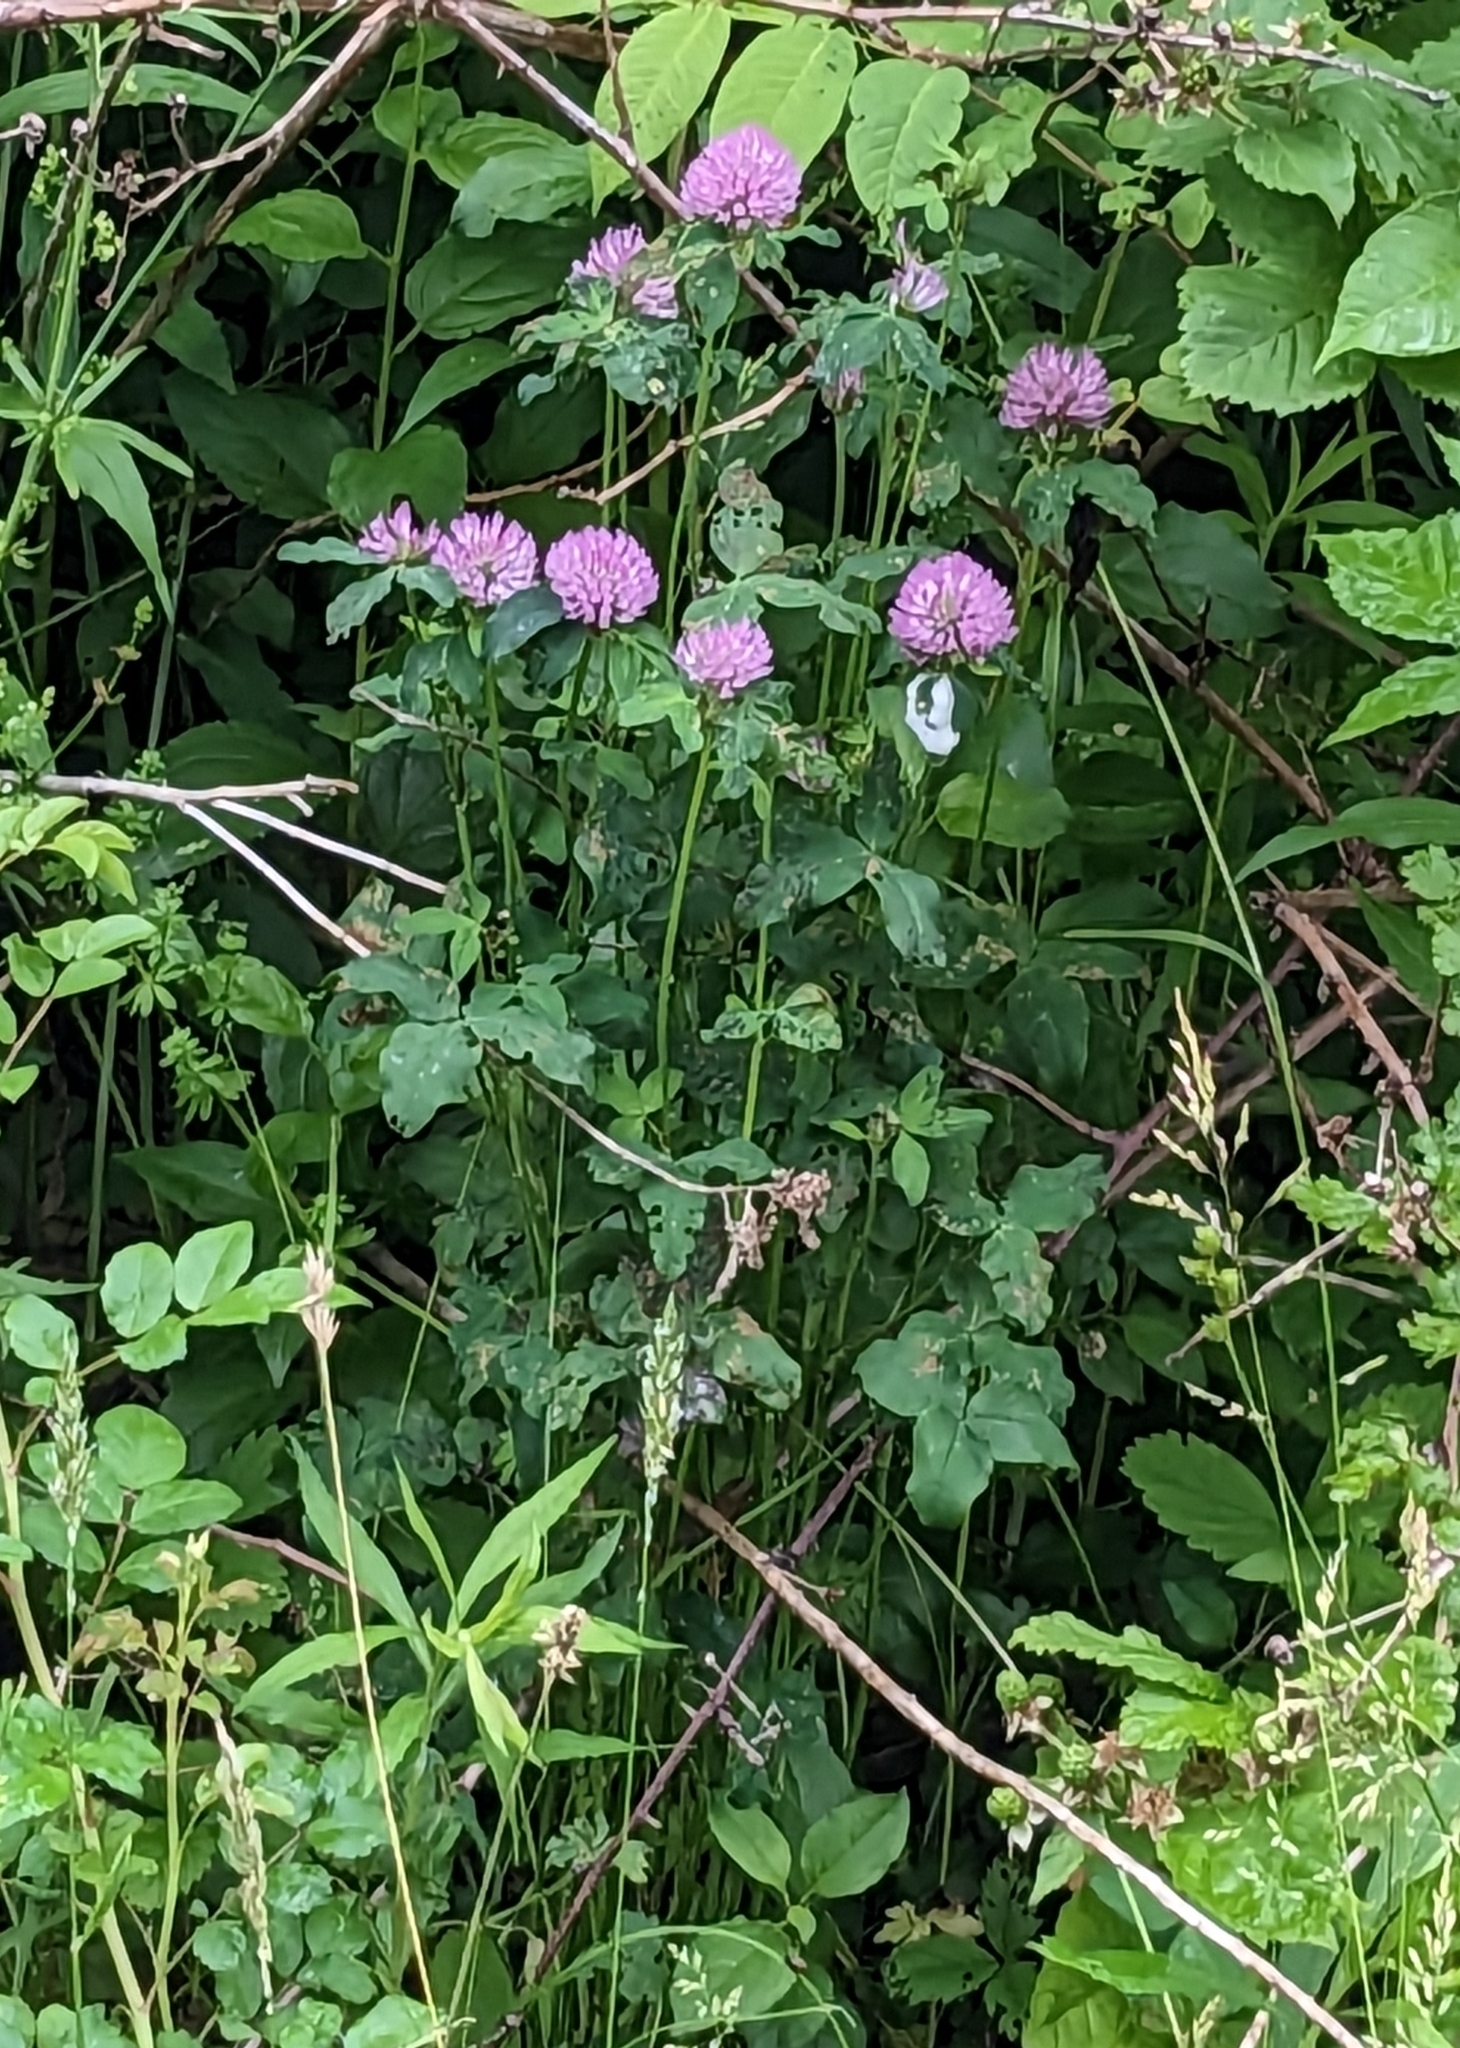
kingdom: Plantae
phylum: Tracheophyta
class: Magnoliopsida
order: Fabales
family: Fabaceae
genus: Trifolium
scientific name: Trifolium pratense
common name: Red clover
